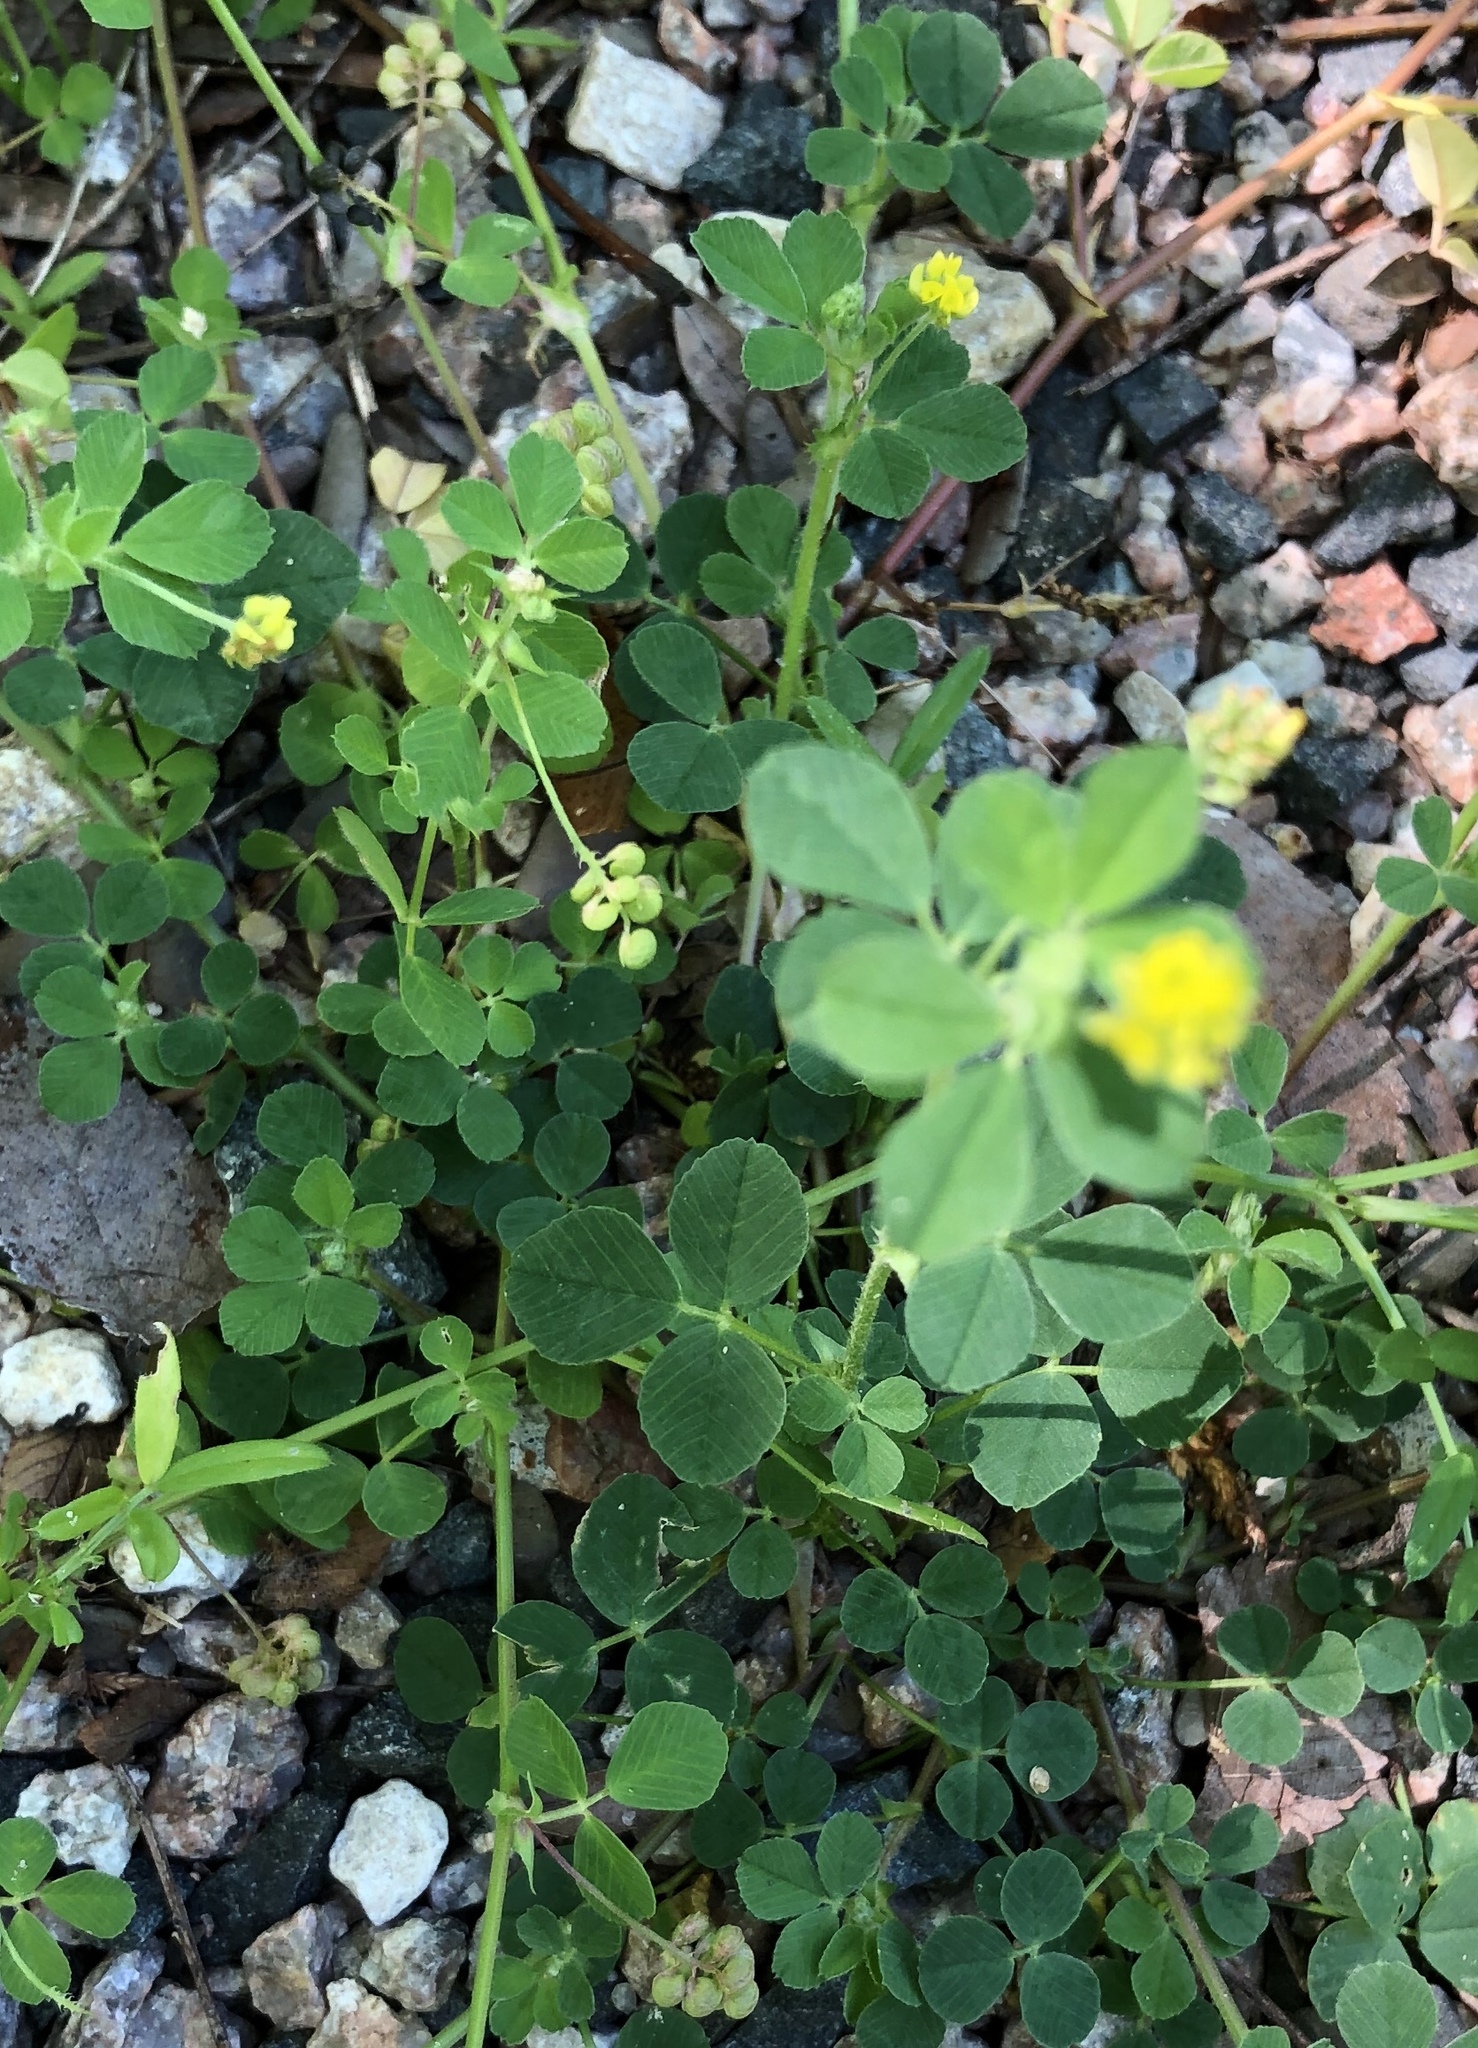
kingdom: Plantae
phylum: Tracheophyta
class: Magnoliopsida
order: Fabales
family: Fabaceae
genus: Medicago
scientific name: Medicago lupulina
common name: Black medick
